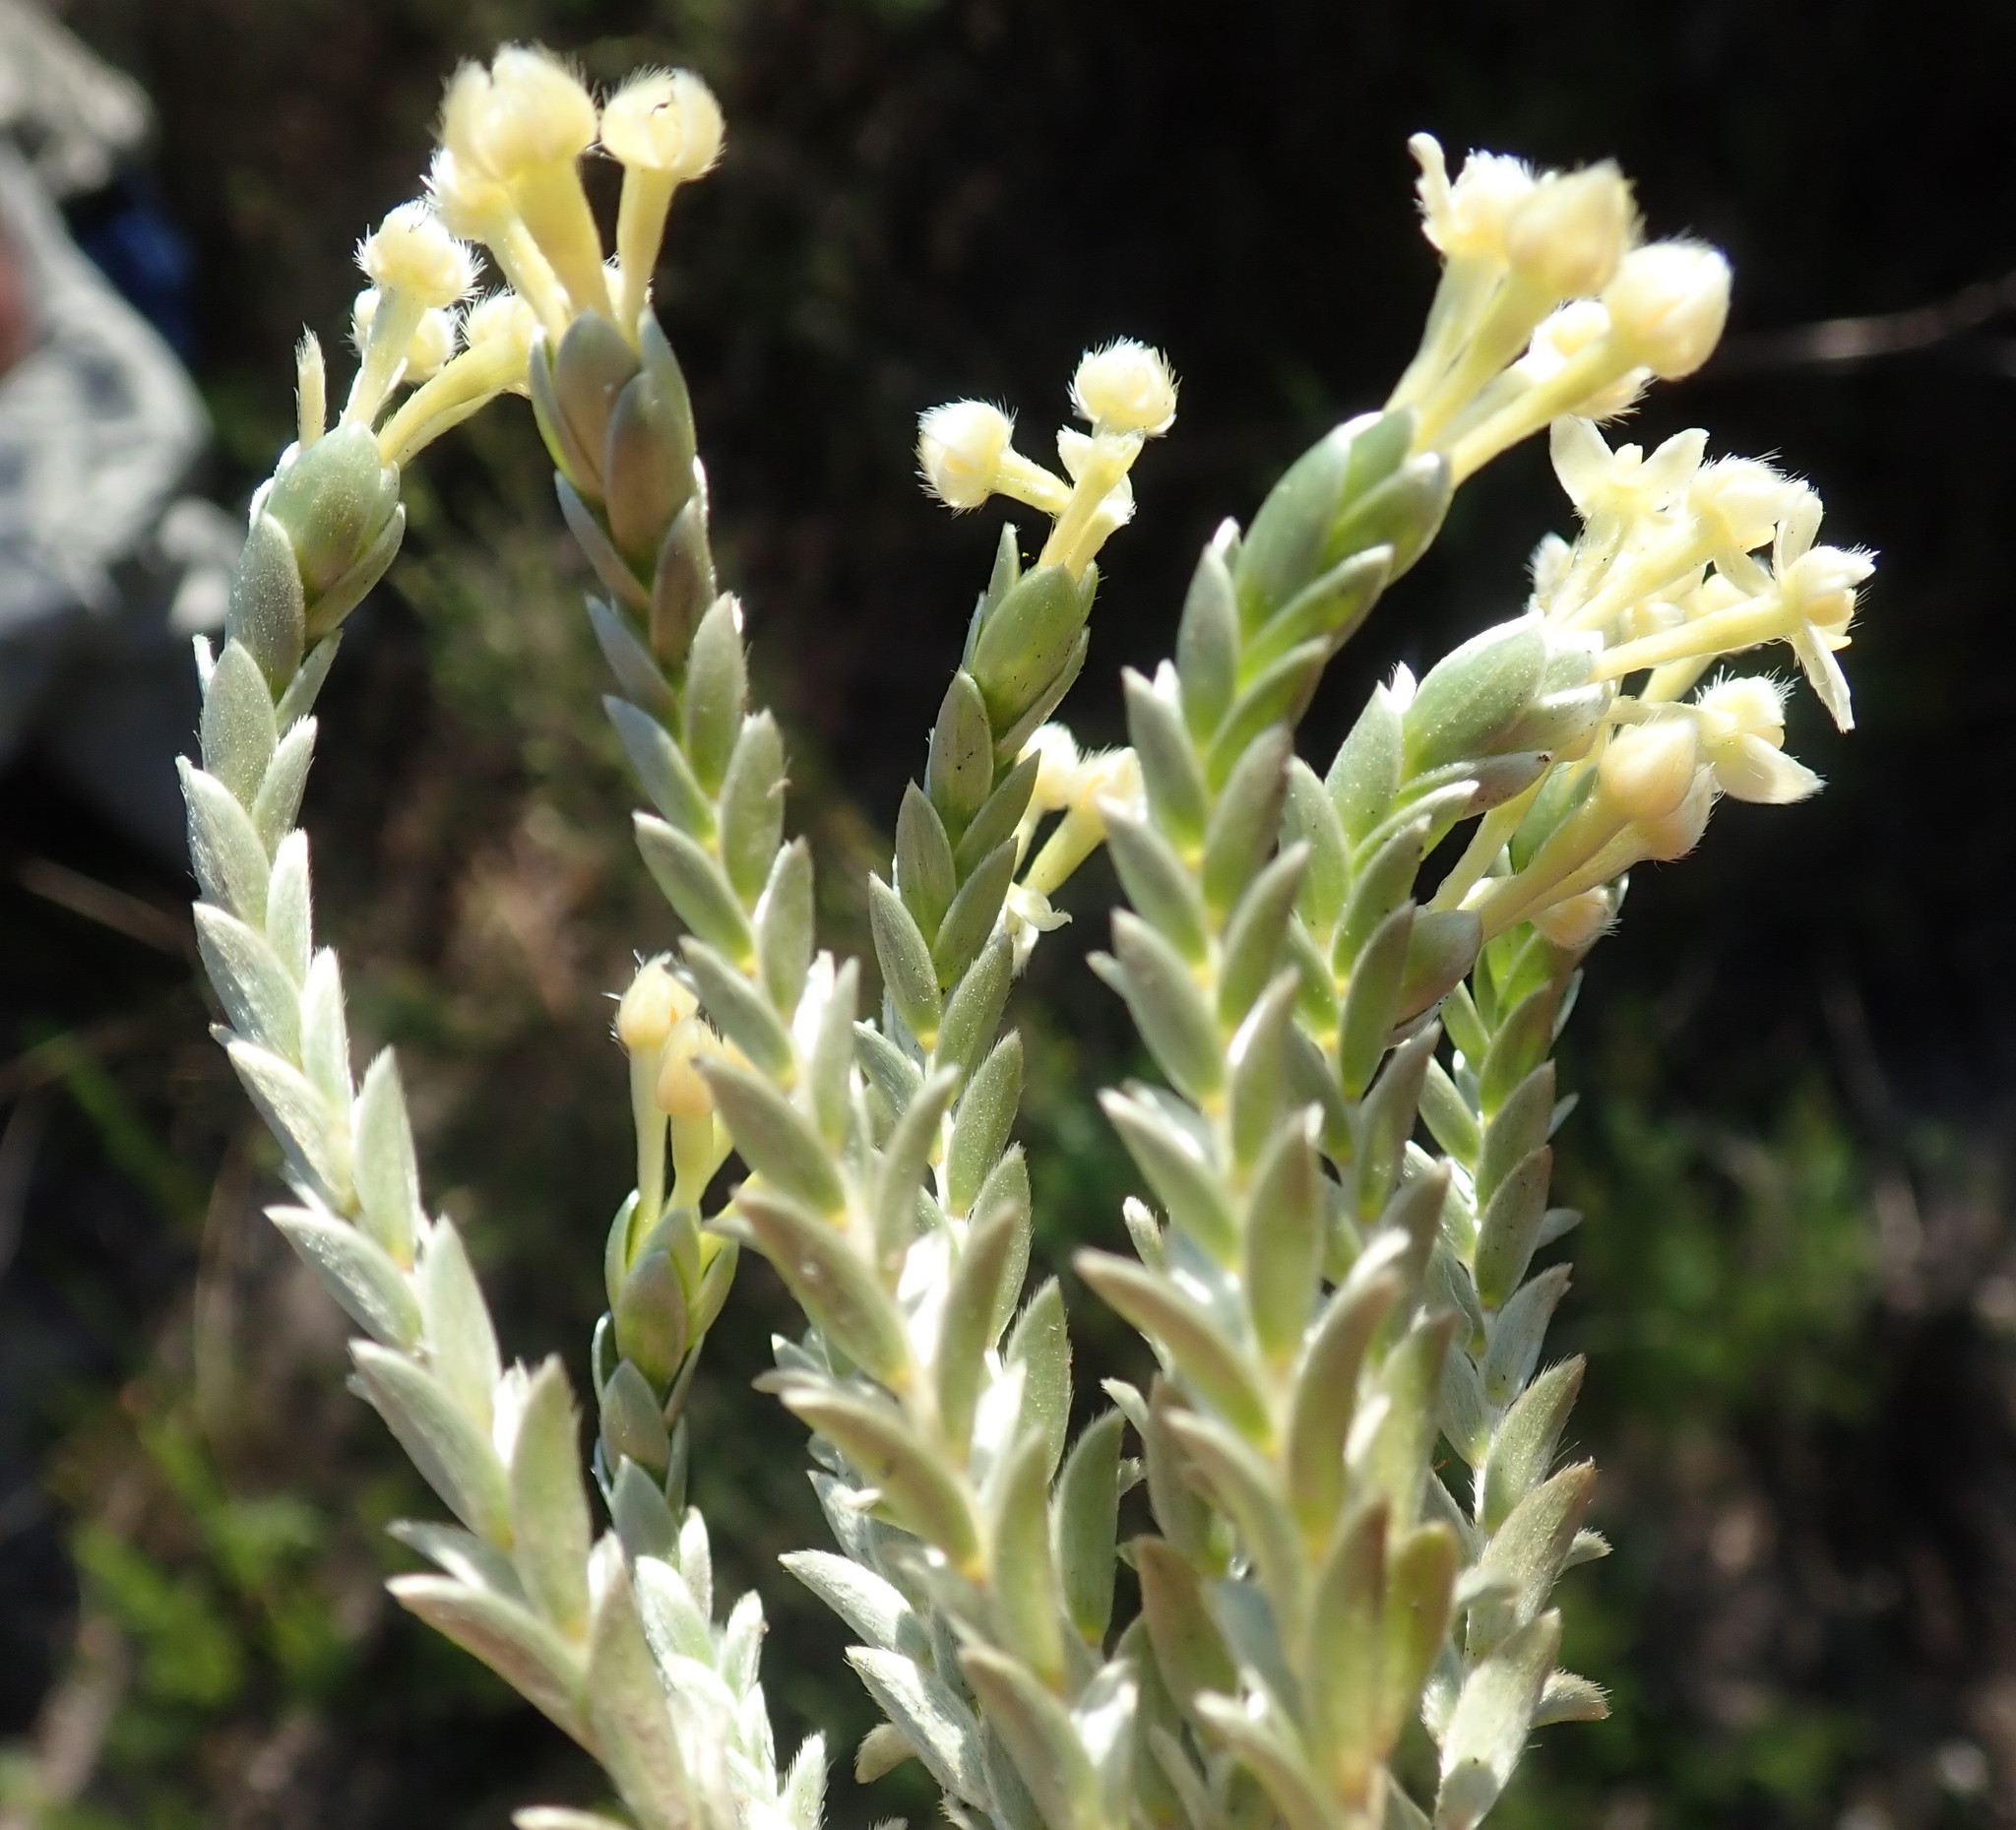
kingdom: Plantae
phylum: Tracheophyta
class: Magnoliopsida
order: Malvales
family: Thymelaeaceae
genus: Gnidia
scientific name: Gnidia chrysophylla
